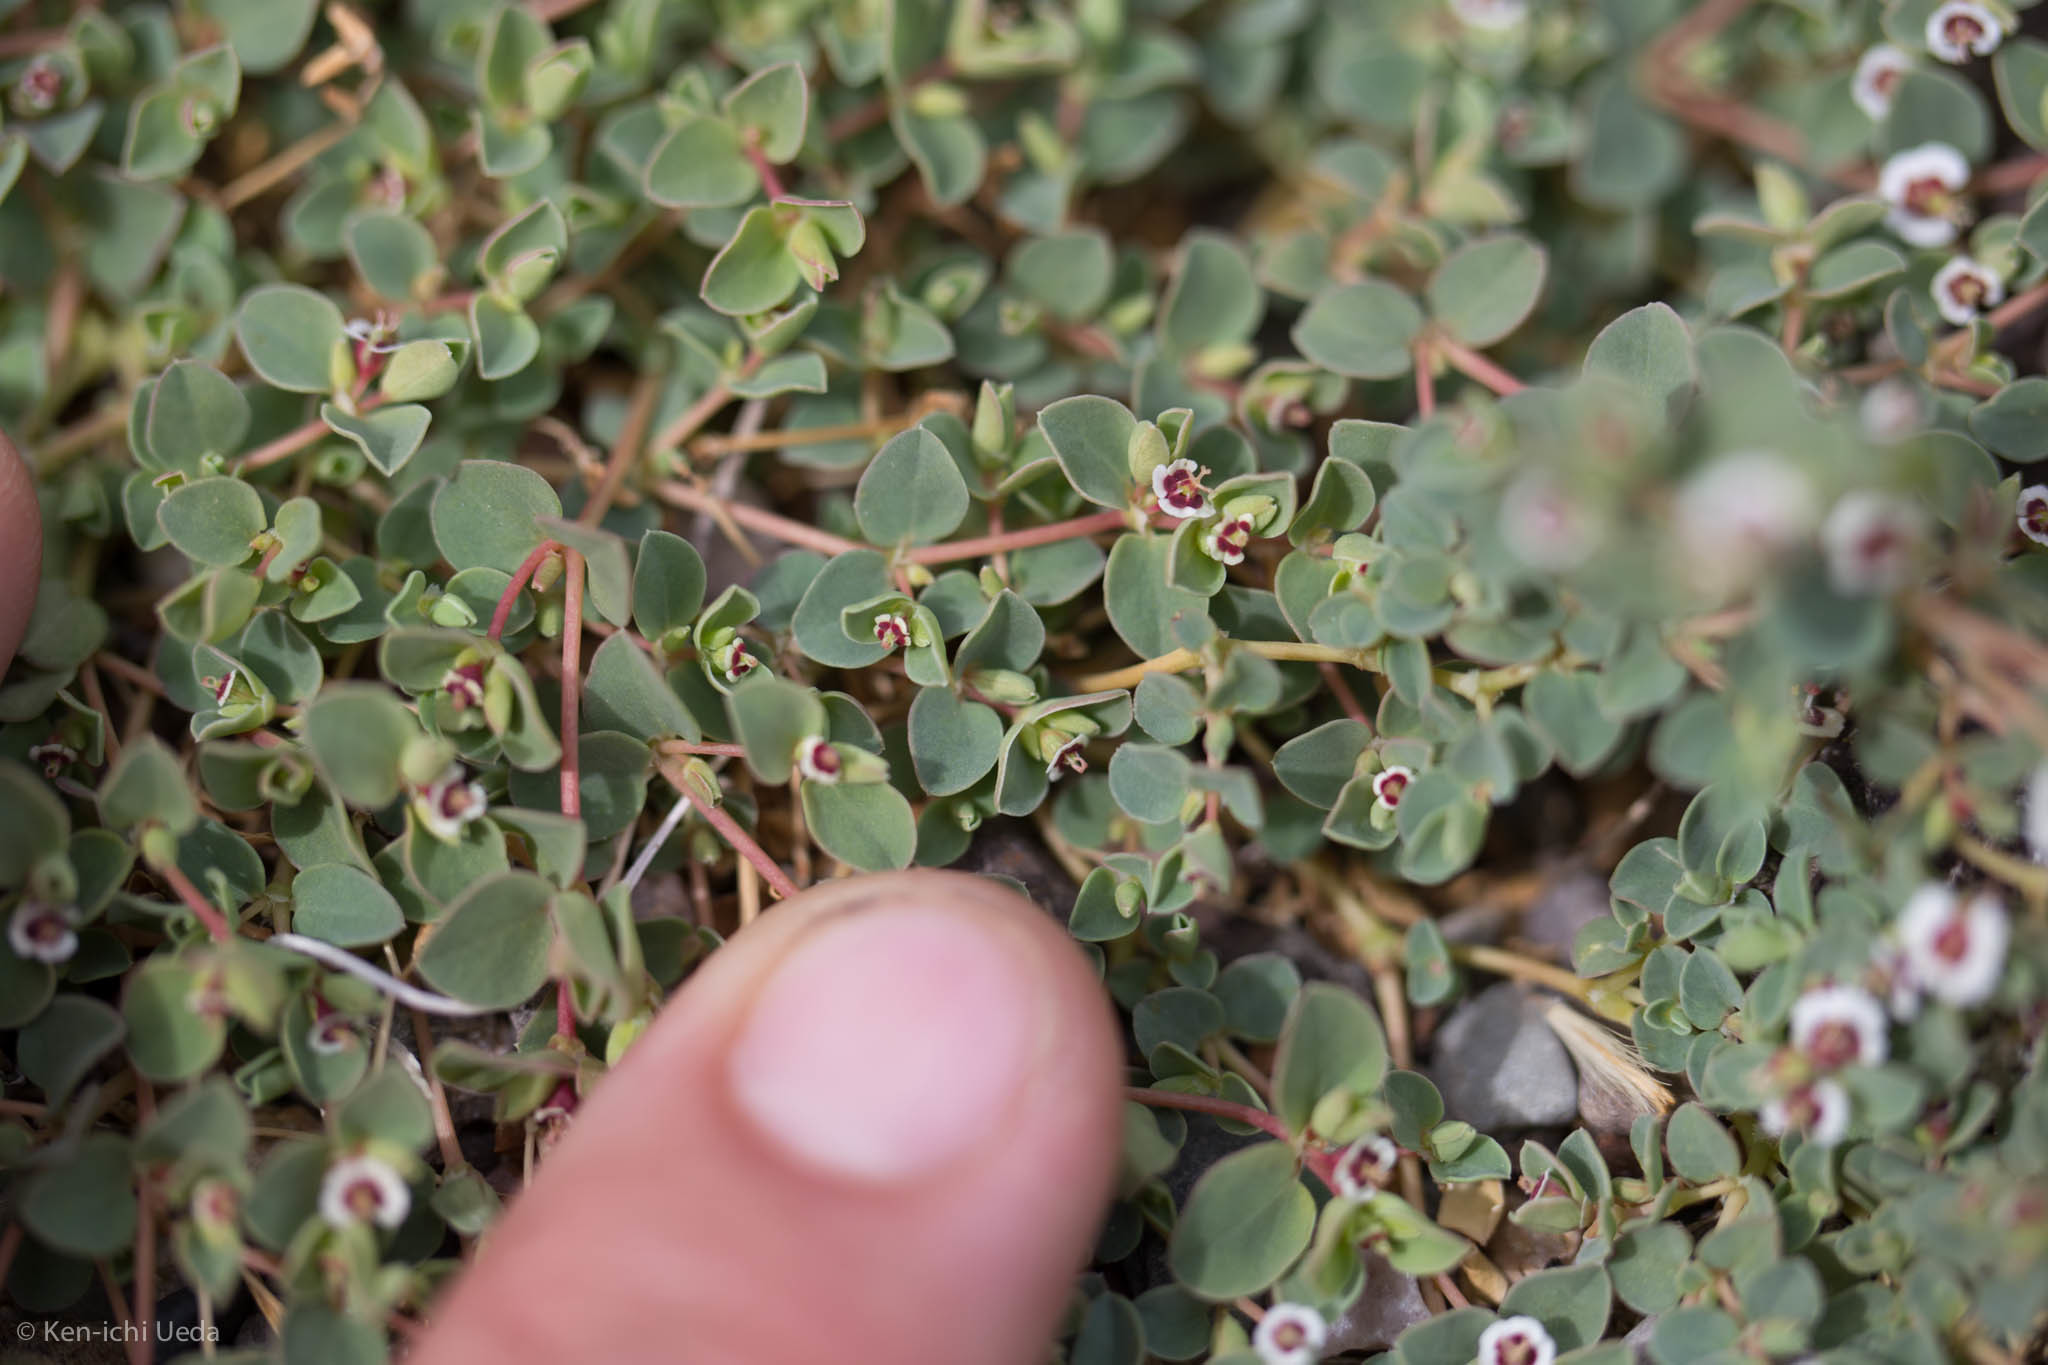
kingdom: Plantae
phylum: Tracheophyta
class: Magnoliopsida
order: Malpighiales
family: Euphorbiaceae
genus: Euphorbia
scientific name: Euphorbia albomarginata
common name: Whitemargin sandmat
